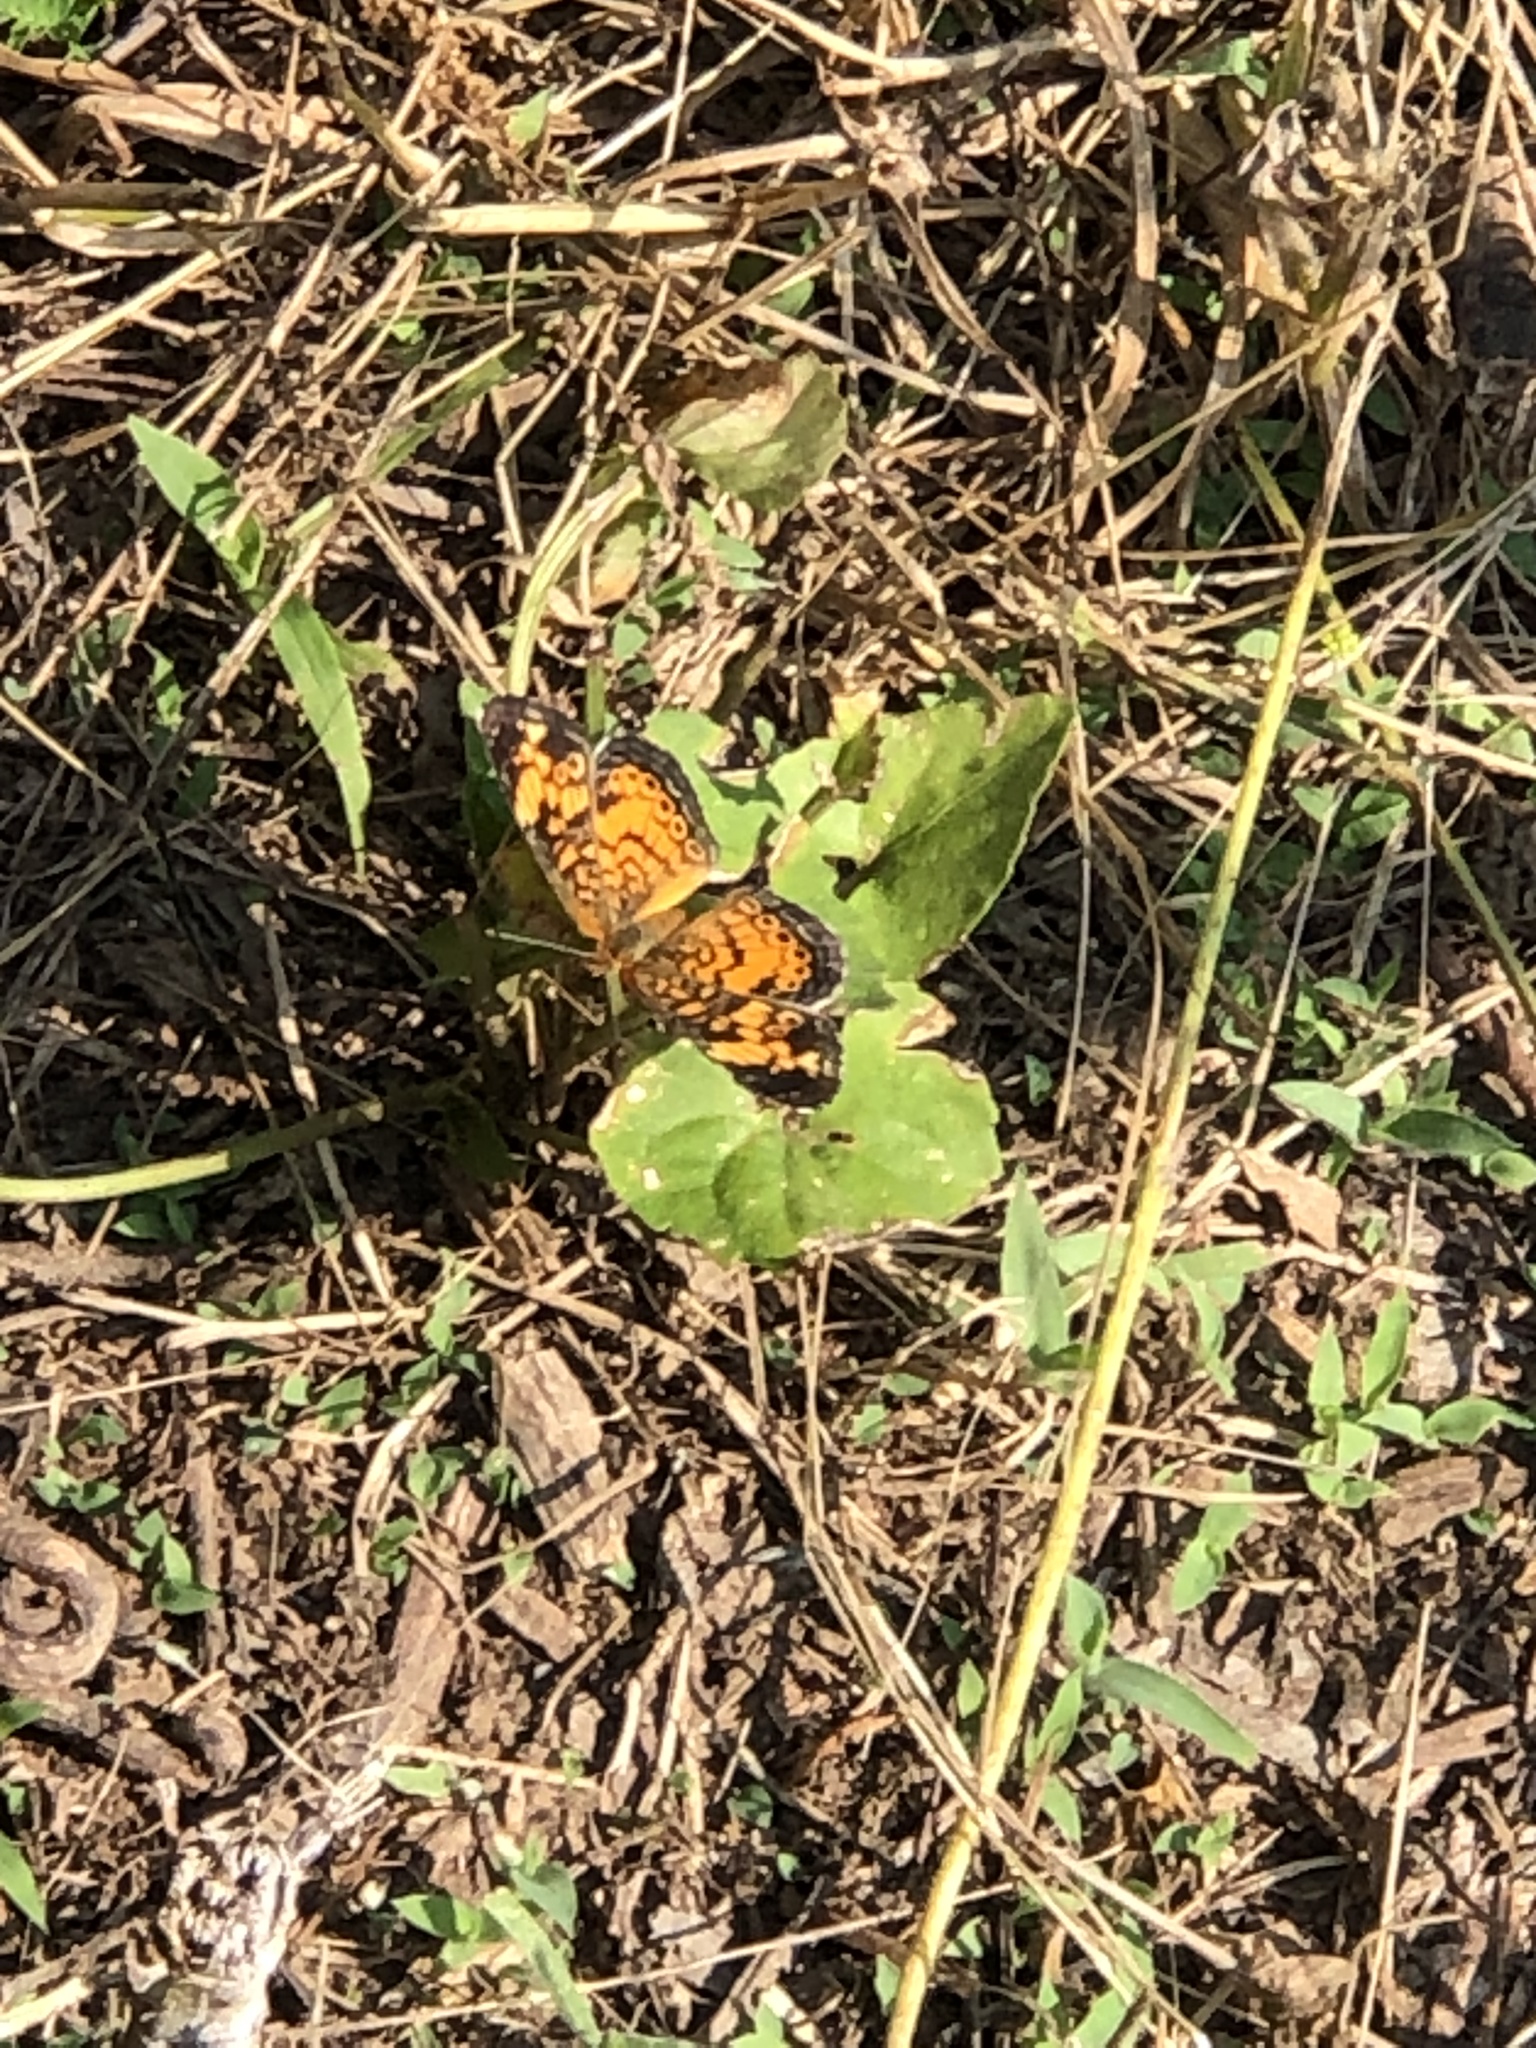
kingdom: Animalia
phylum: Arthropoda
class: Insecta
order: Lepidoptera
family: Nymphalidae
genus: Phyciodes
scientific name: Phyciodes tharos
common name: Pearl crescent
